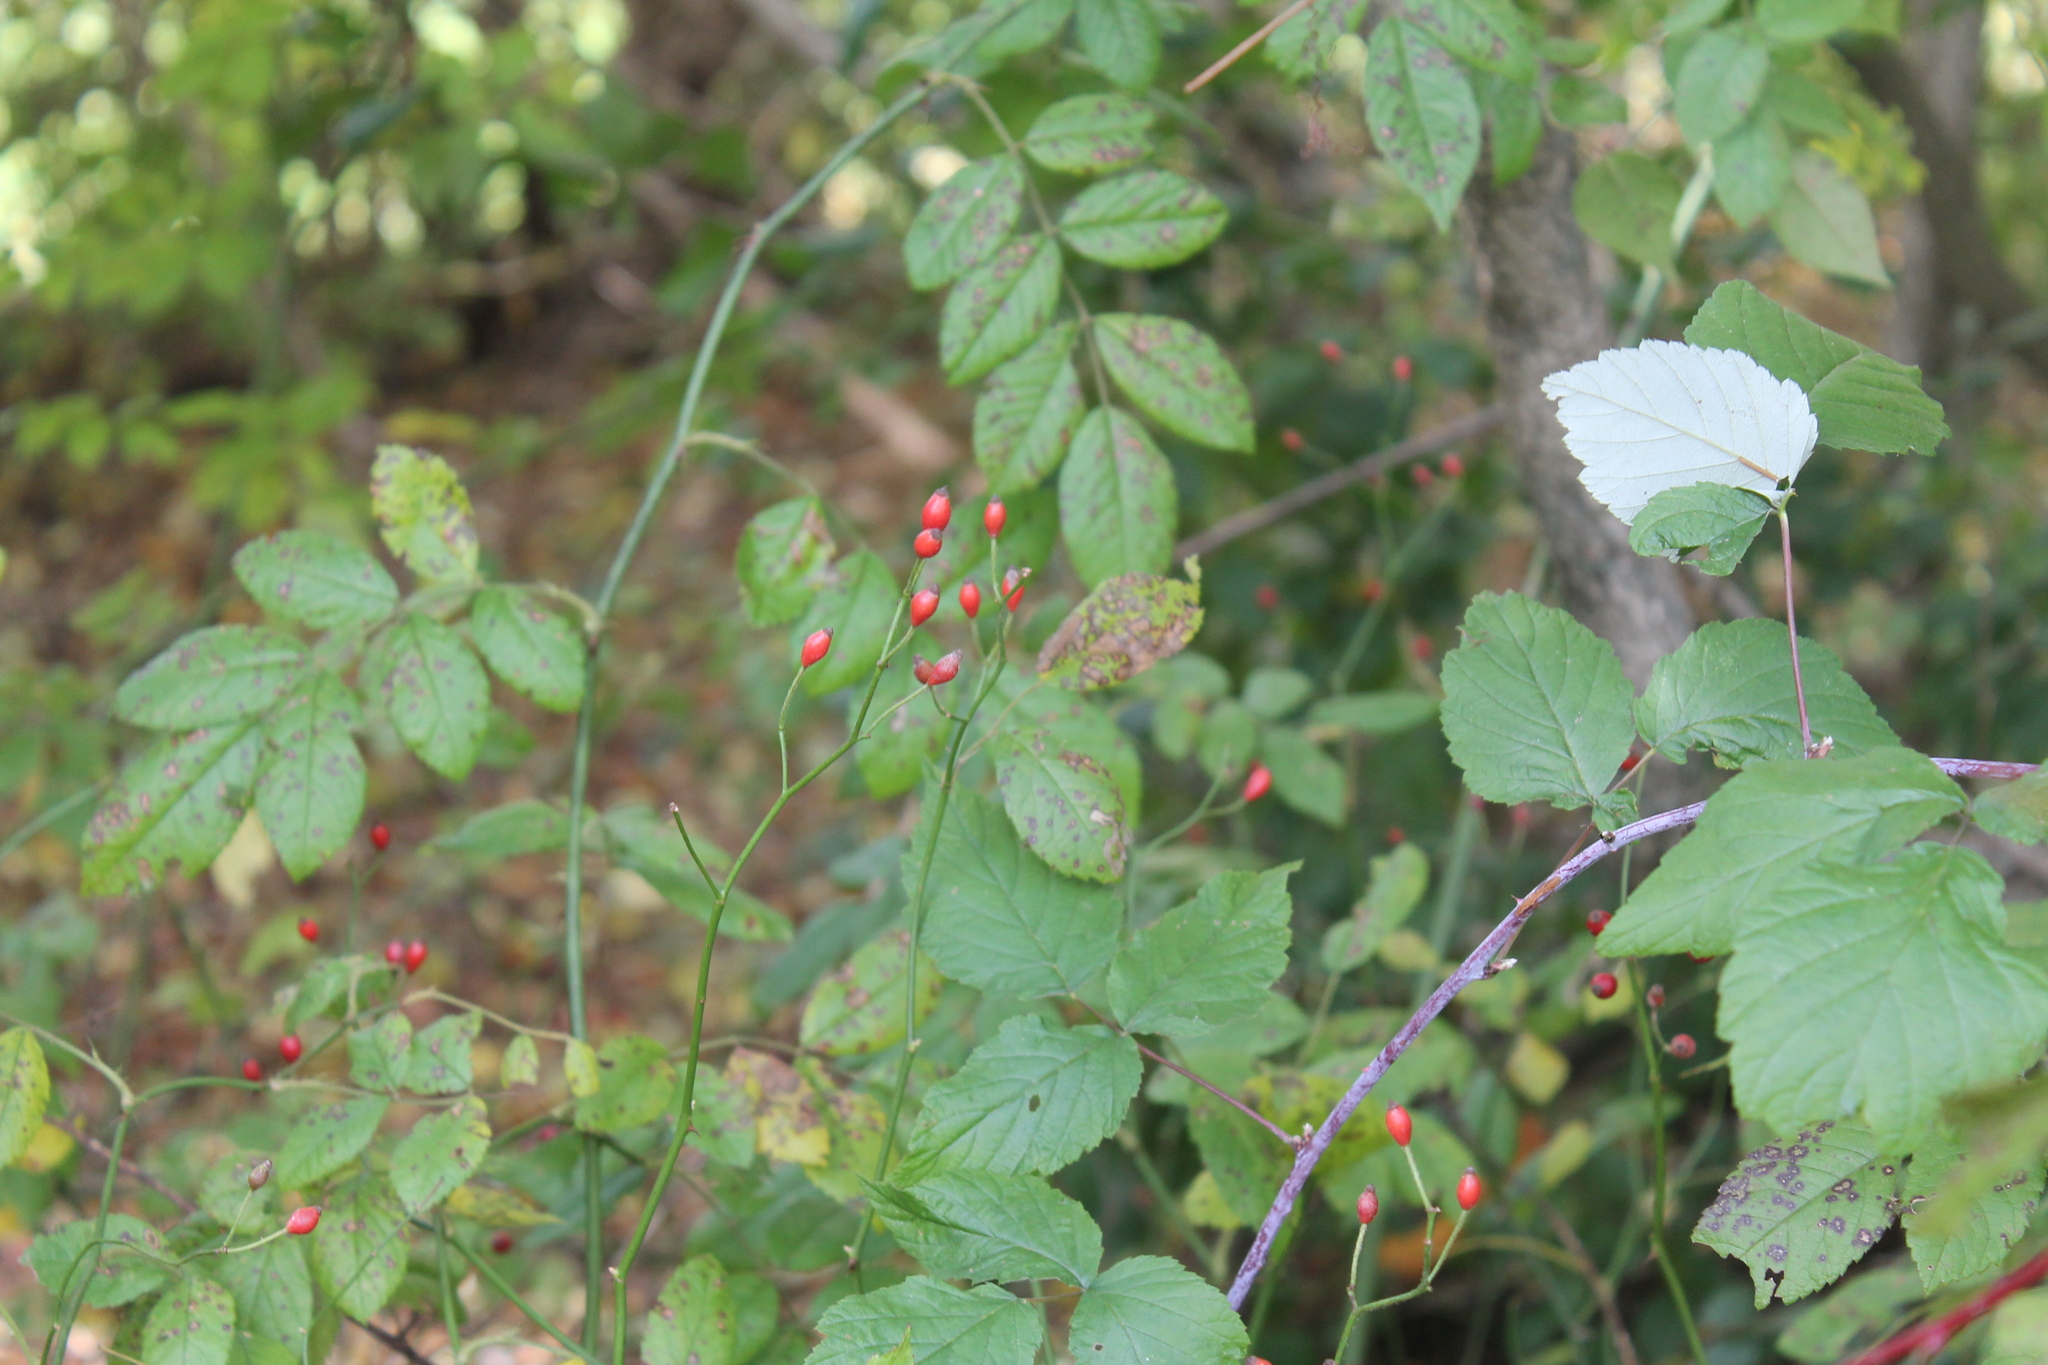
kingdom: Plantae
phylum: Tracheophyta
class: Magnoliopsida
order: Rosales
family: Rosaceae
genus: Rosa
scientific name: Rosa multiflora
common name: Multiflora rose
